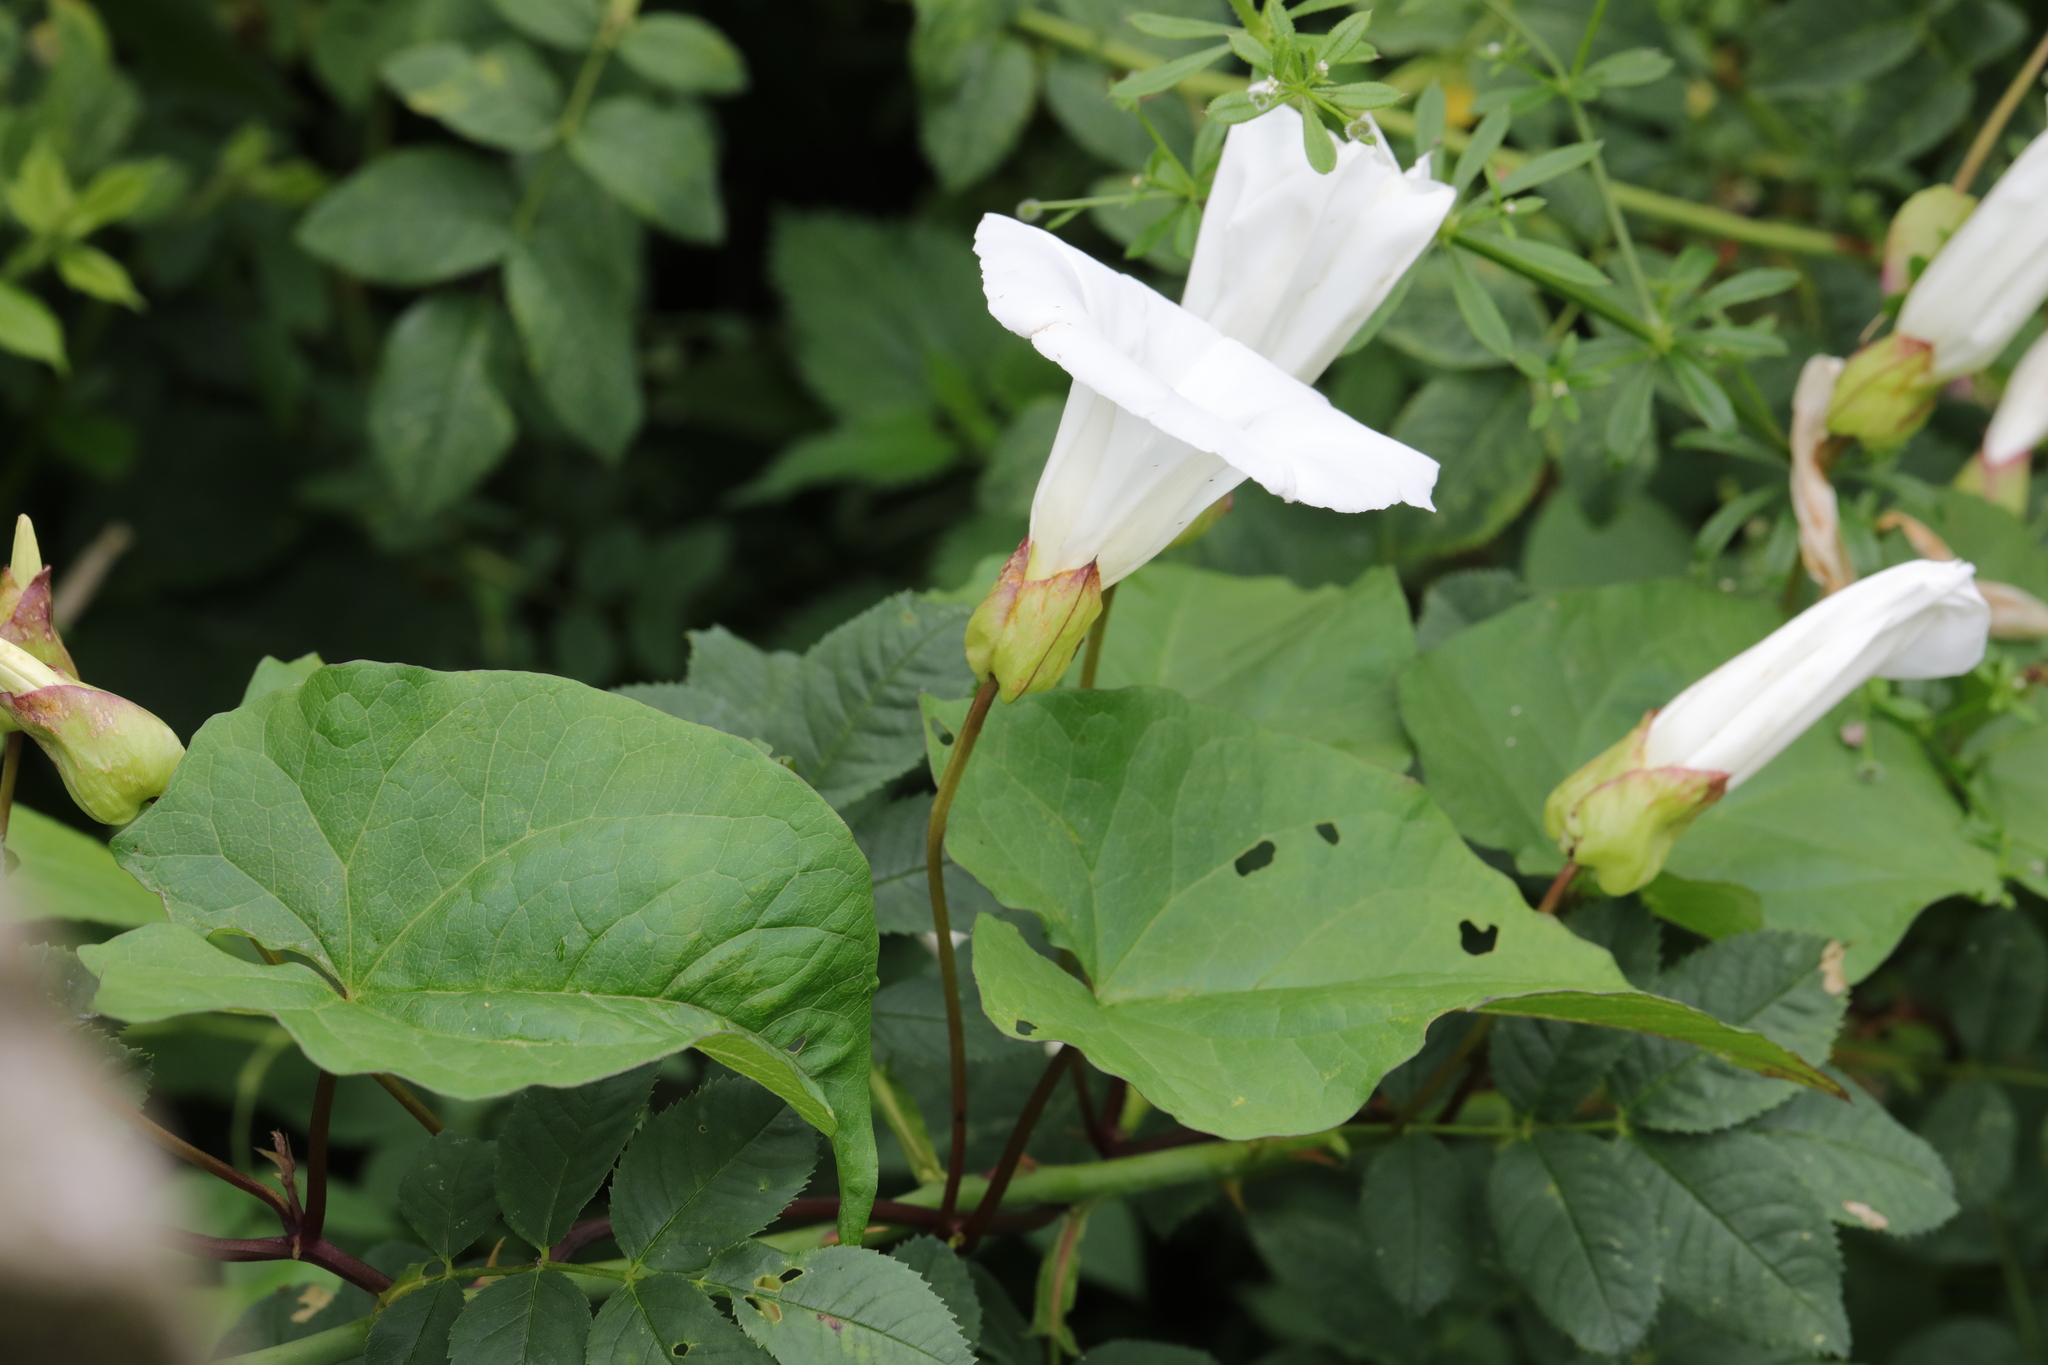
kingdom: Plantae
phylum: Tracheophyta
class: Magnoliopsida
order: Solanales
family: Convolvulaceae
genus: Calystegia
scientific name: Calystegia silvatica
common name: Large bindweed
